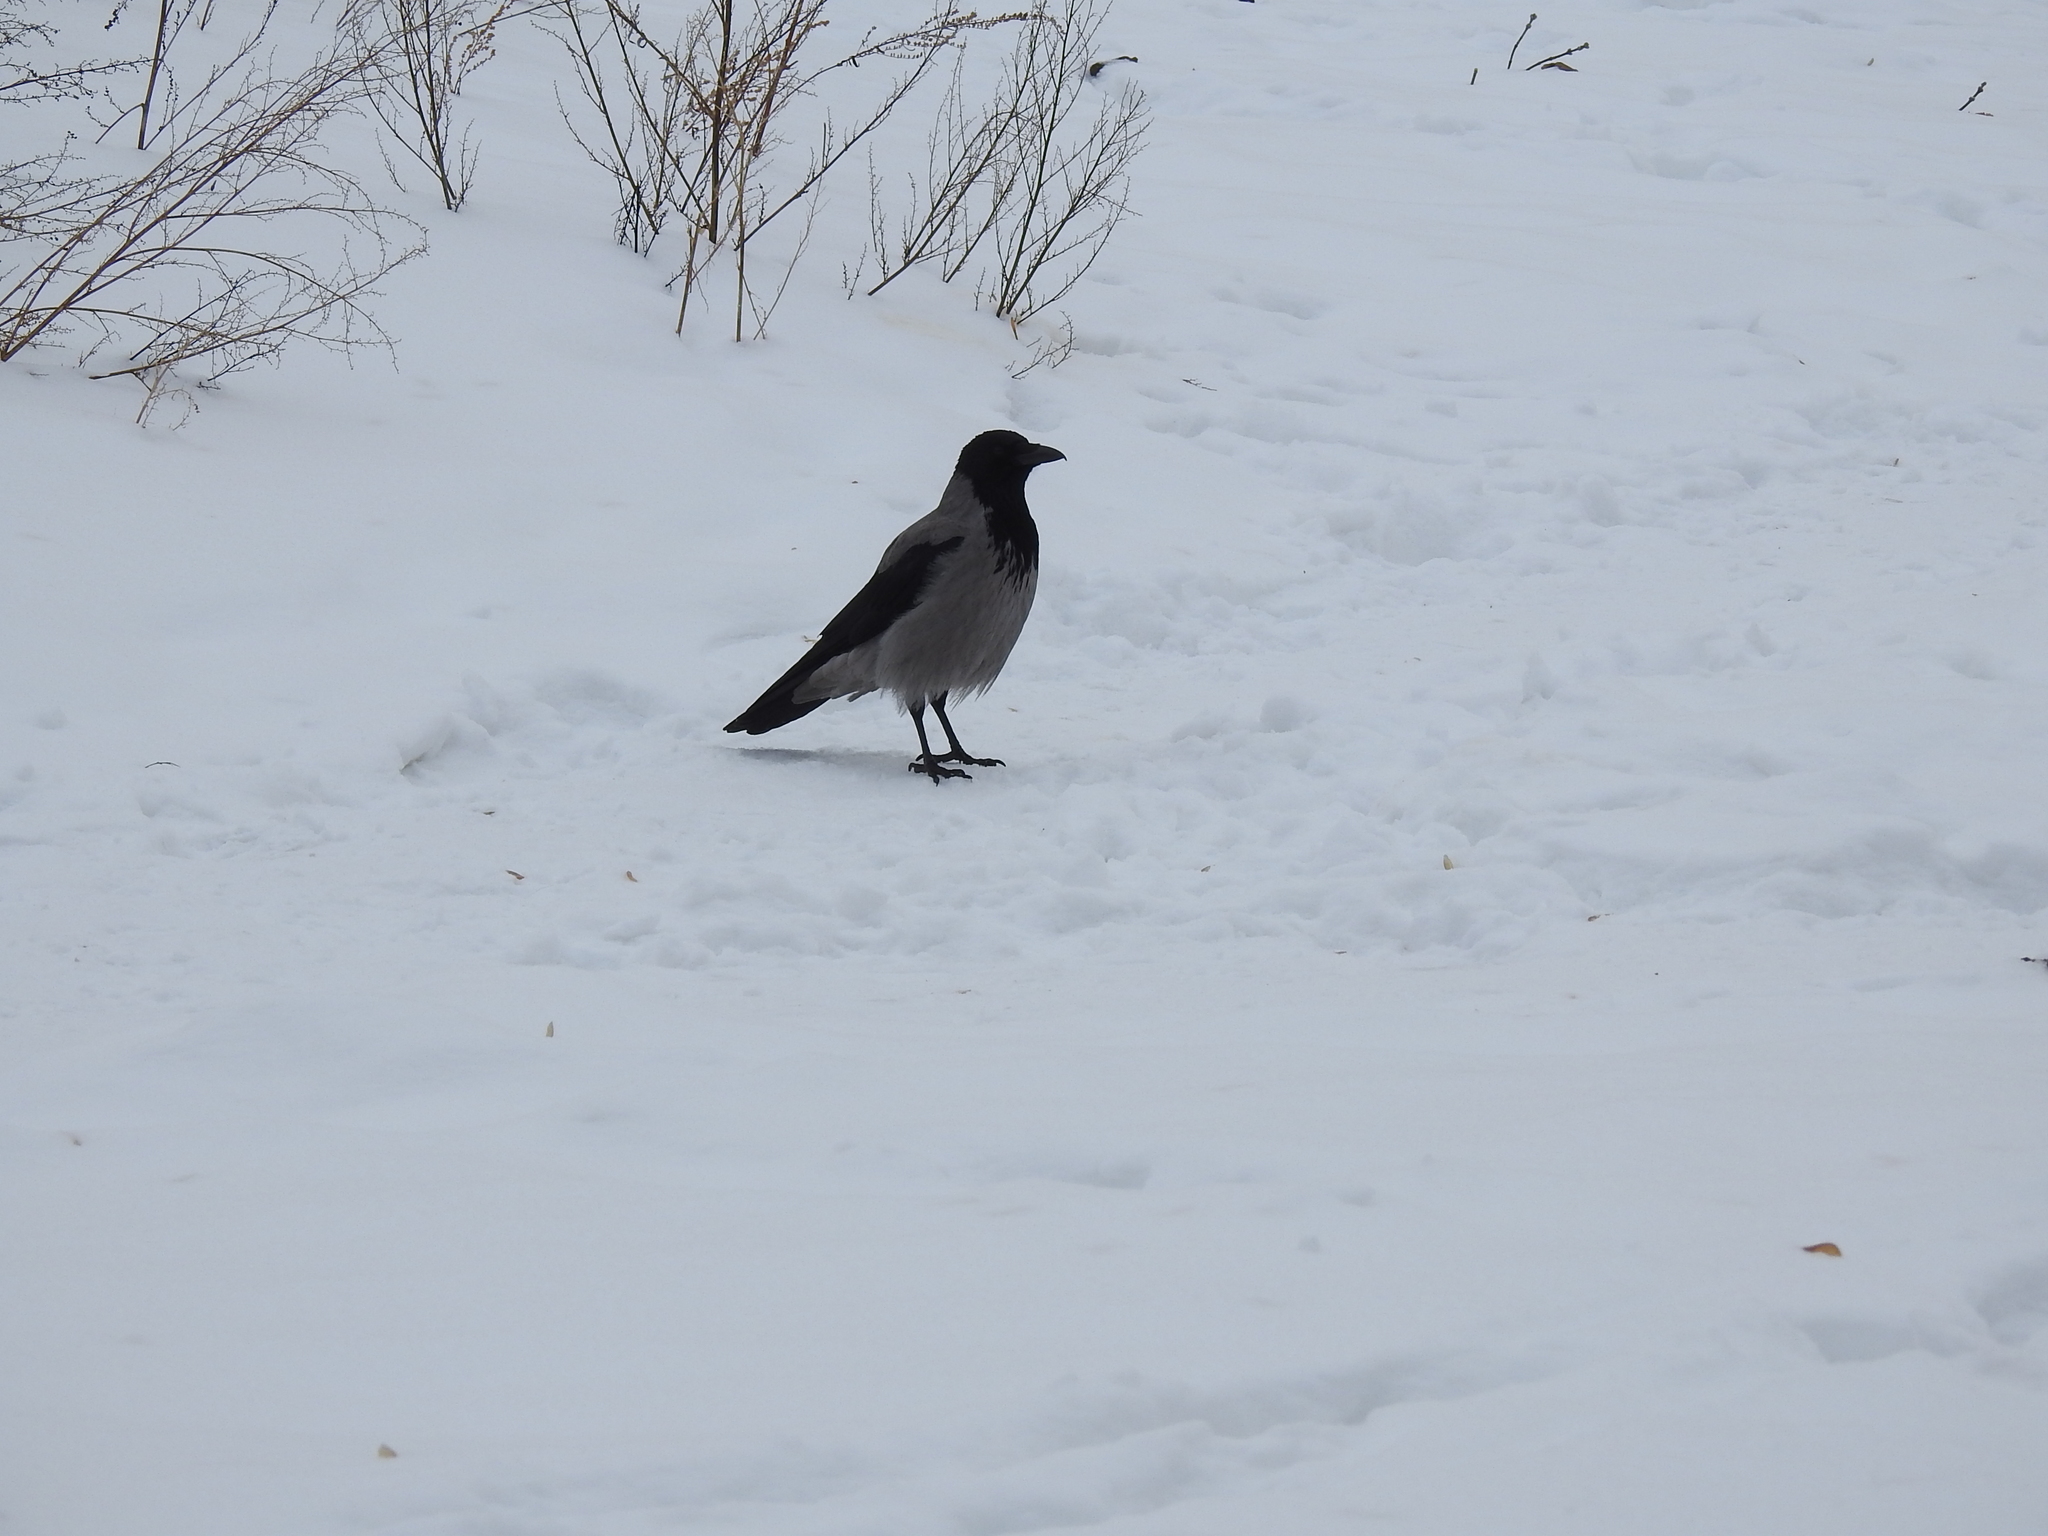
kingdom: Animalia
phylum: Chordata
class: Aves
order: Passeriformes
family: Corvidae
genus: Corvus
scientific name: Corvus cornix
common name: Hooded crow
